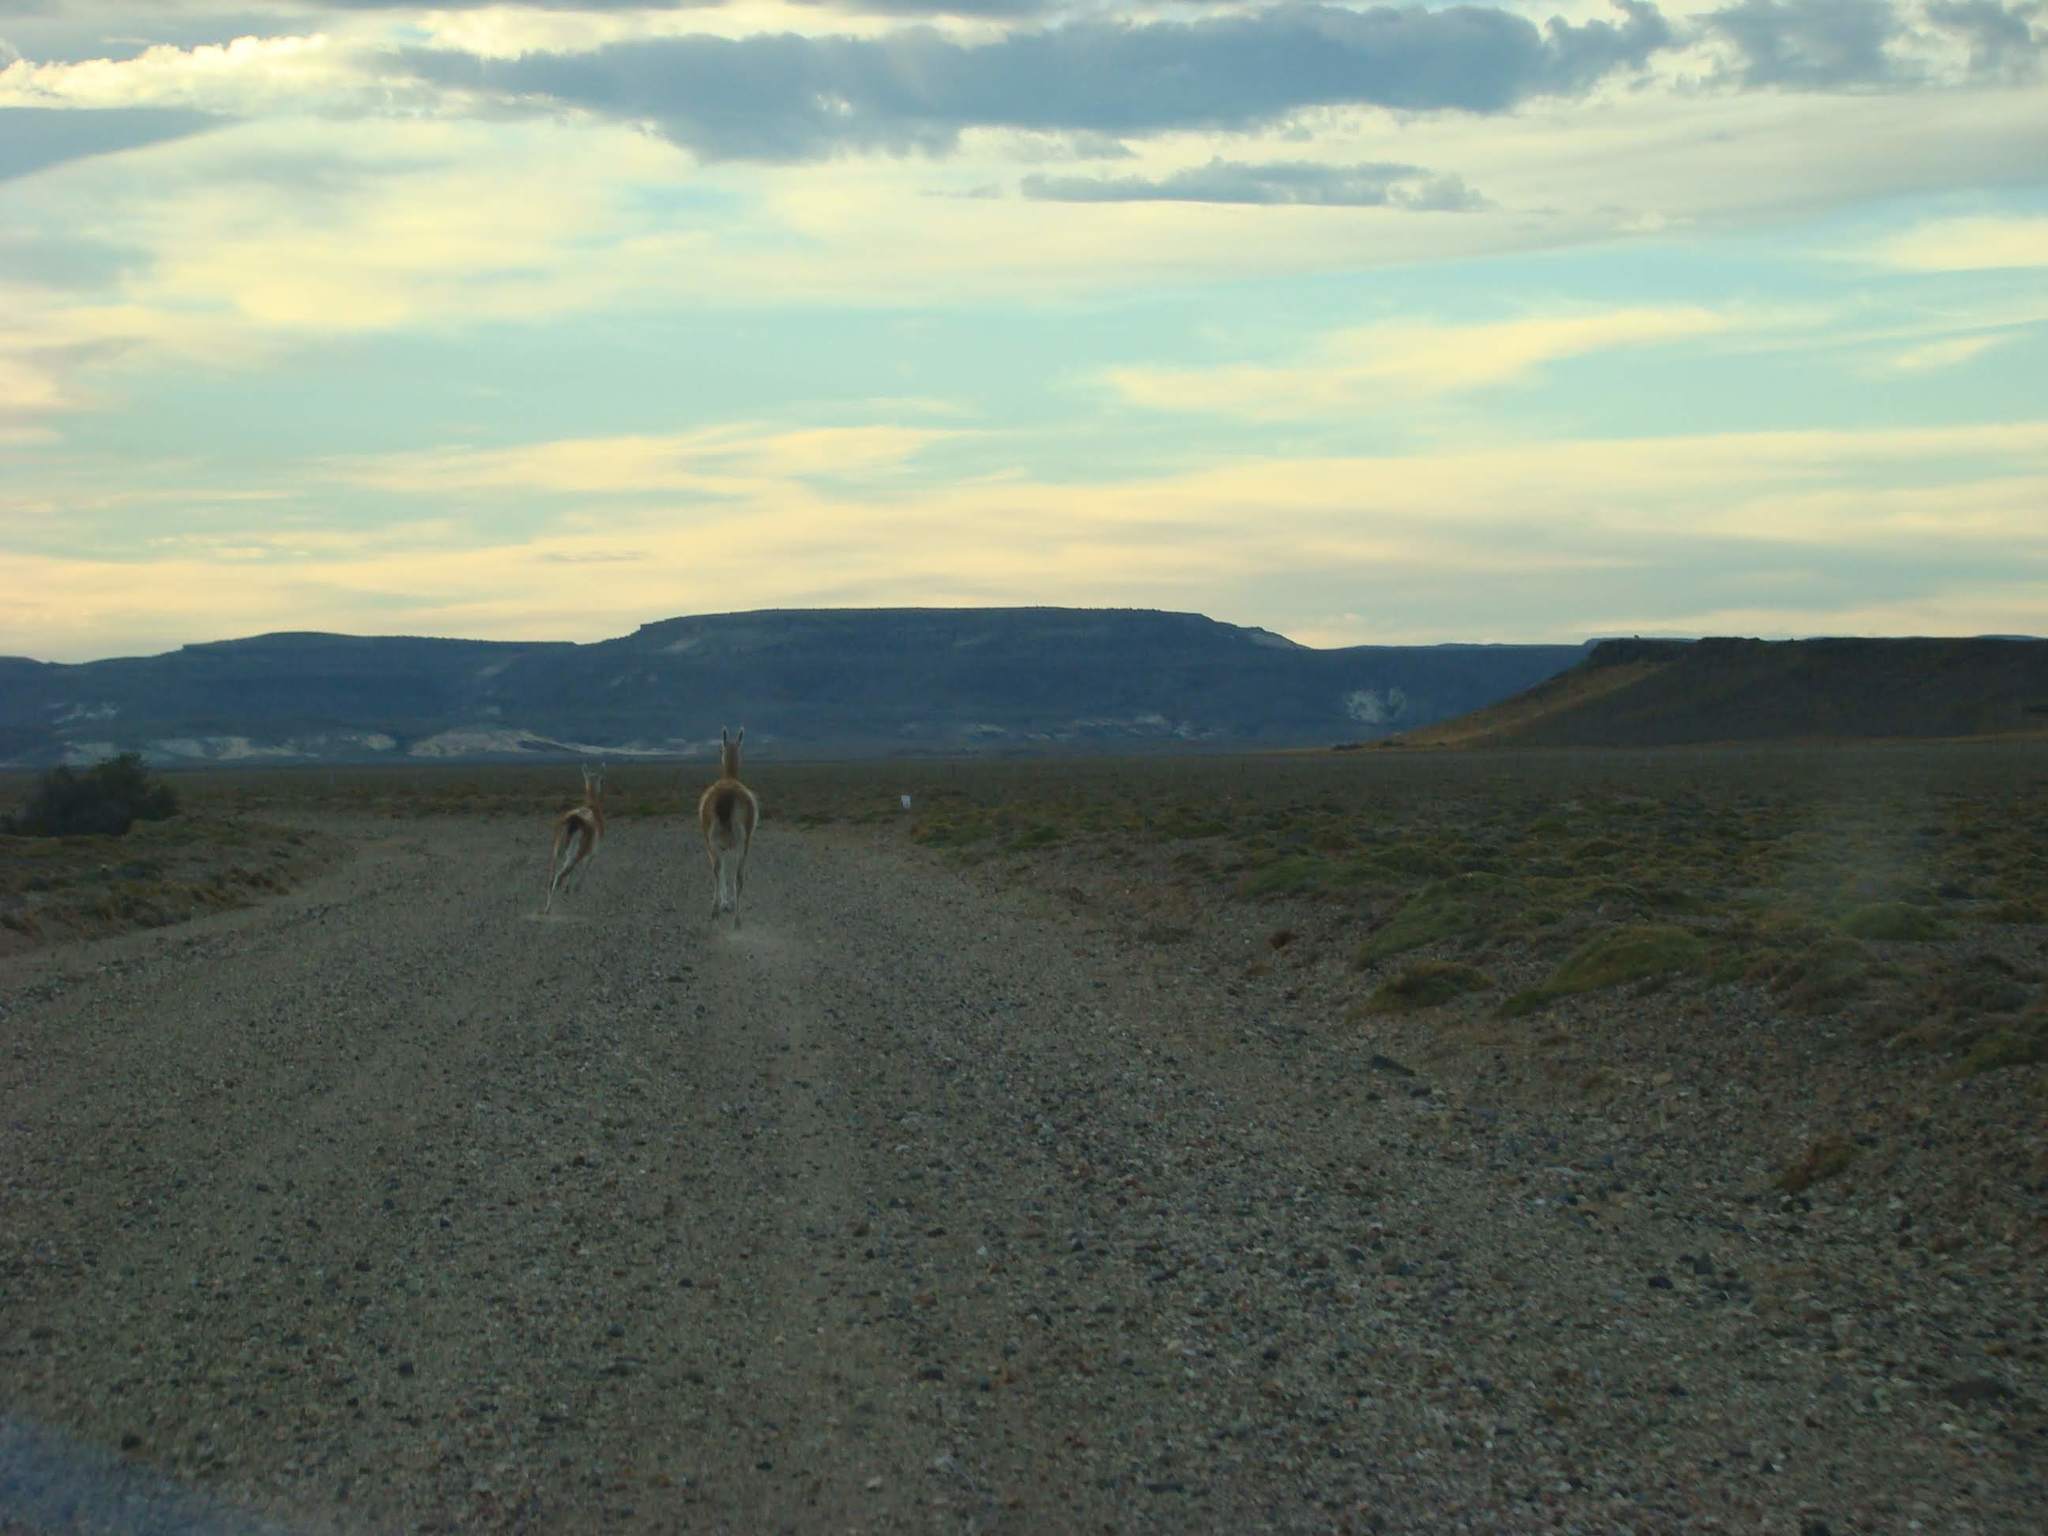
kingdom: Animalia
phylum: Chordata
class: Mammalia
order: Artiodactyla
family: Camelidae
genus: Lama
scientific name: Lama glama
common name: Llama
